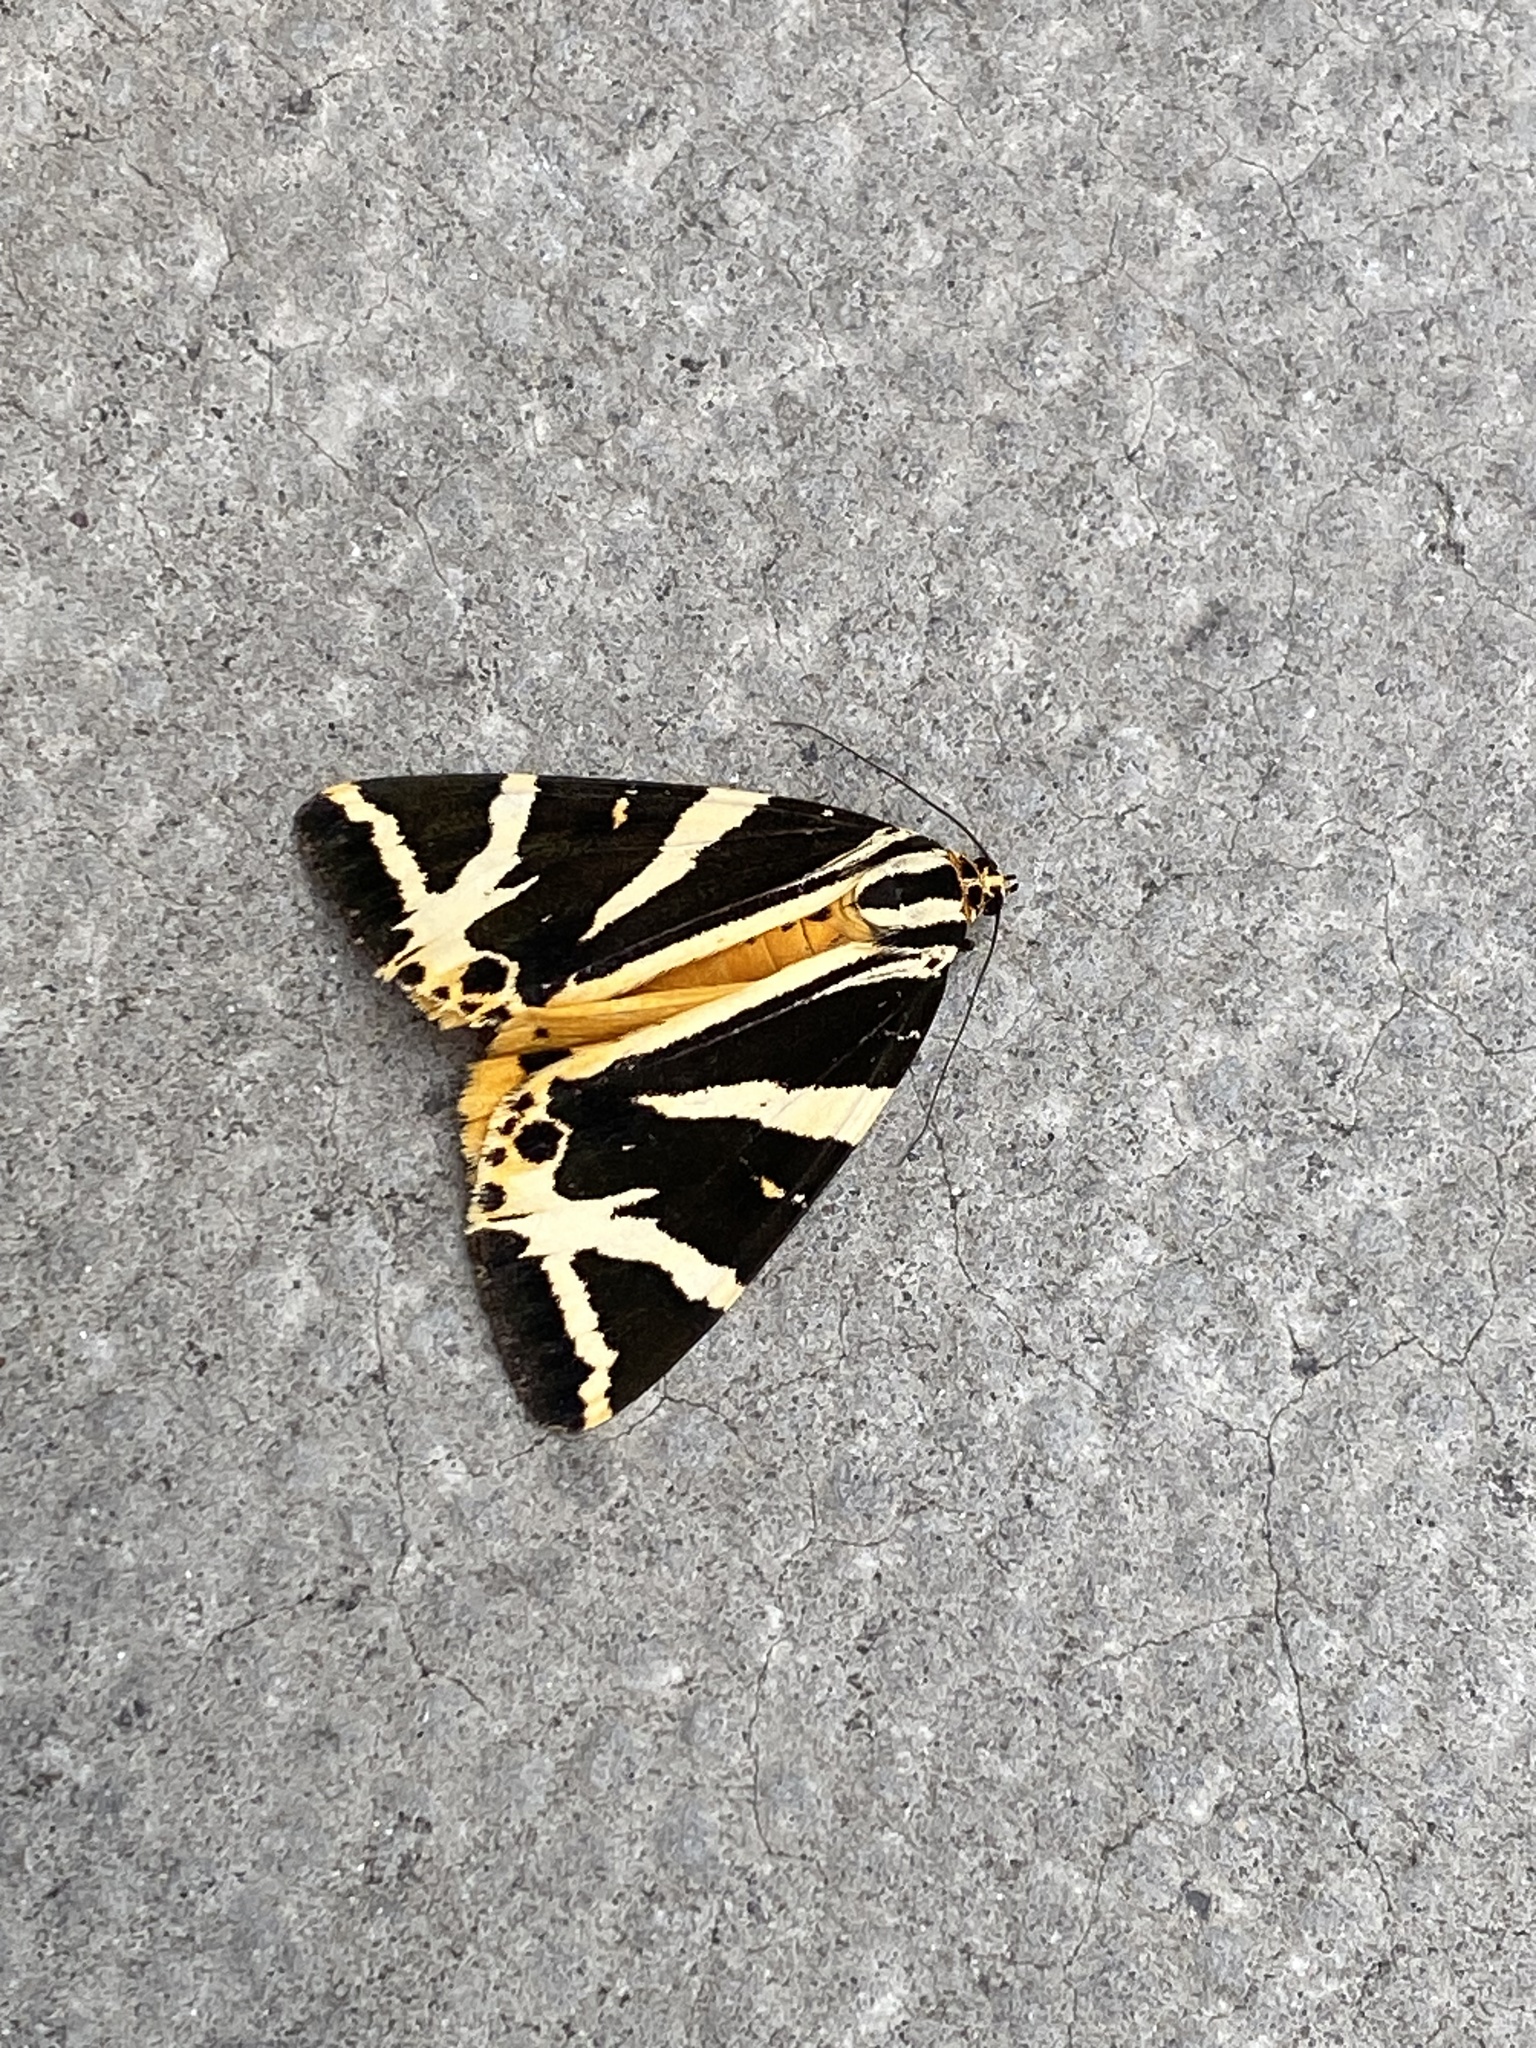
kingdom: Animalia
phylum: Arthropoda
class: Insecta
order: Lepidoptera
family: Erebidae
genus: Euplagia
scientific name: Euplagia quadripunctaria
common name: Jersey tiger
